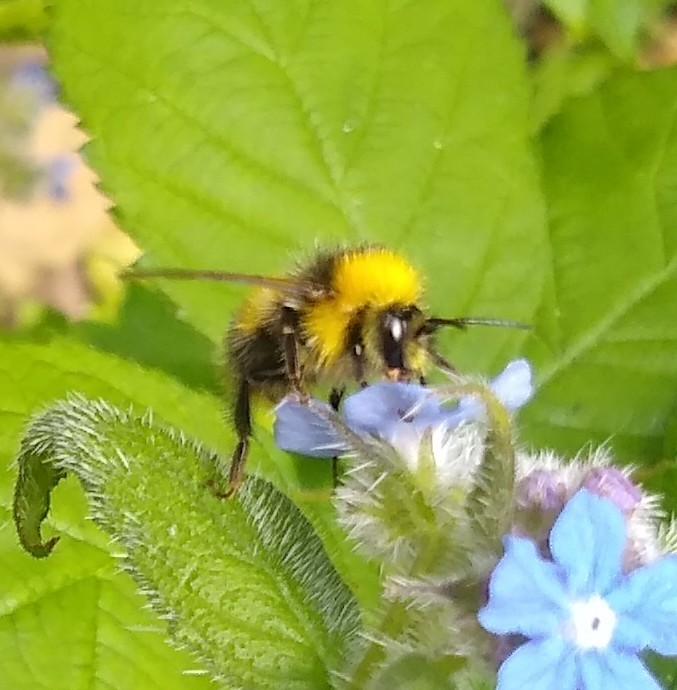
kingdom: Animalia
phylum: Arthropoda
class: Insecta
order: Hymenoptera
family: Apidae
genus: Bombus
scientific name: Bombus pratorum
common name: Early humble-bee
